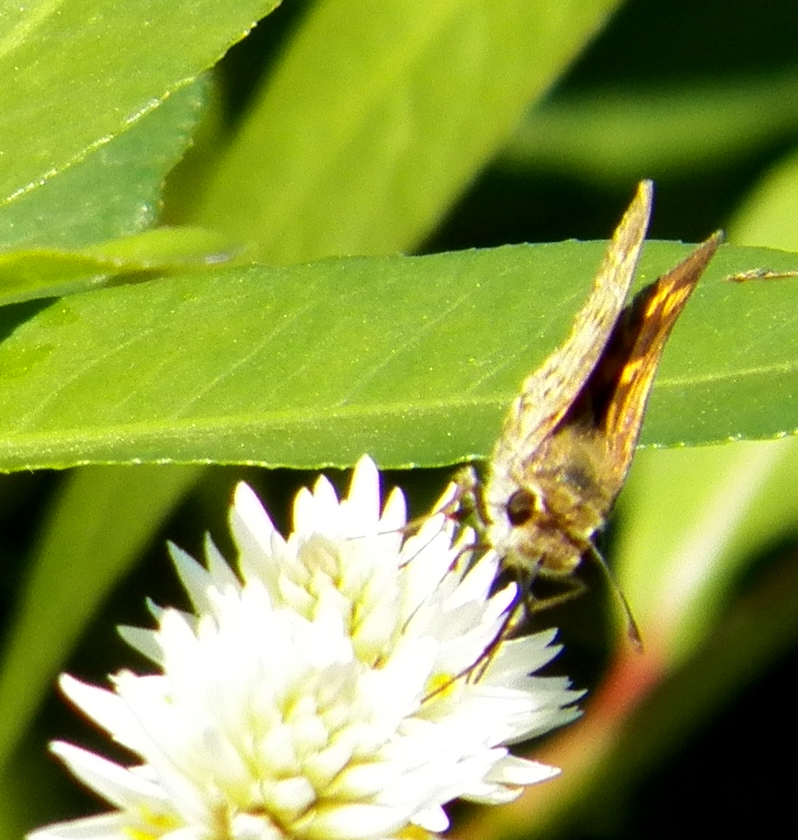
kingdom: Animalia
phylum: Arthropoda
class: Insecta
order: Lepidoptera
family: Hesperiidae
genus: Hylephila
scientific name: Hylephila phyleus
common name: Fiery skipper
